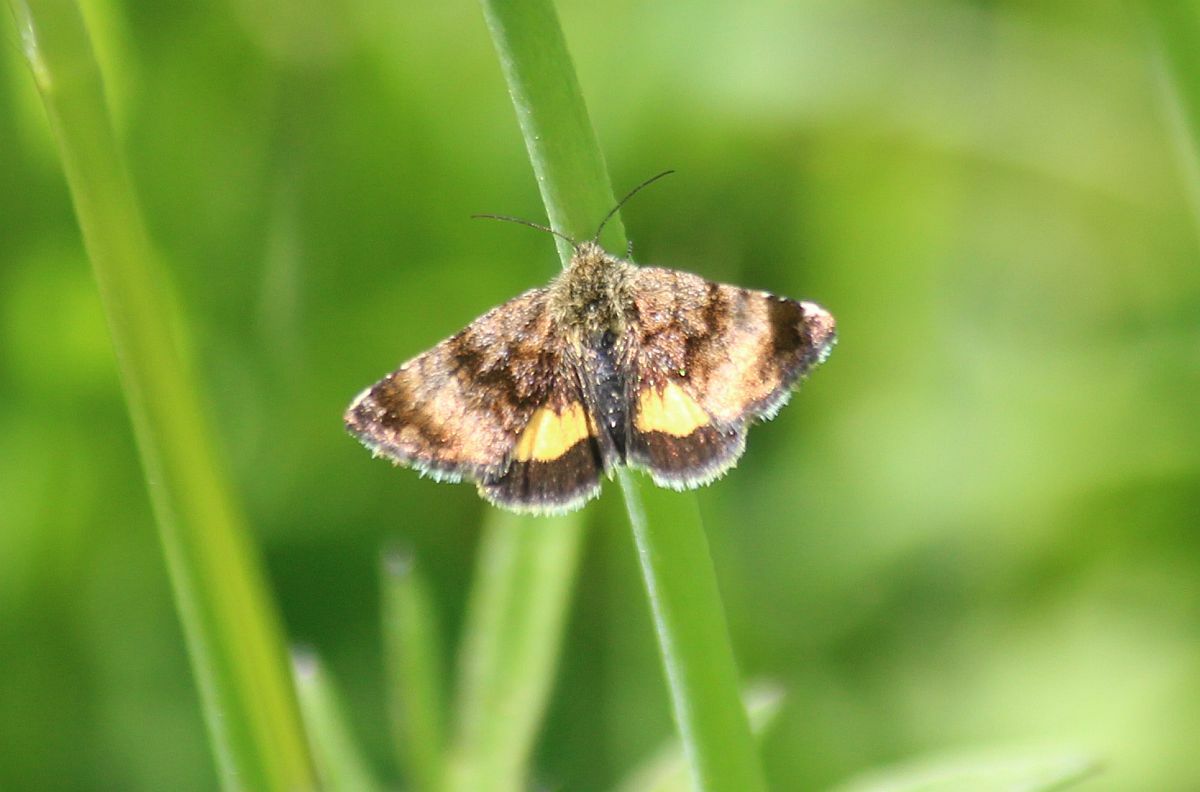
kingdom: Animalia
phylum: Arthropoda
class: Insecta
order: Lepidoptera
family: Noctuidae
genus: Panemeria
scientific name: Panemeria tenebrata
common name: Small yellow underwing
